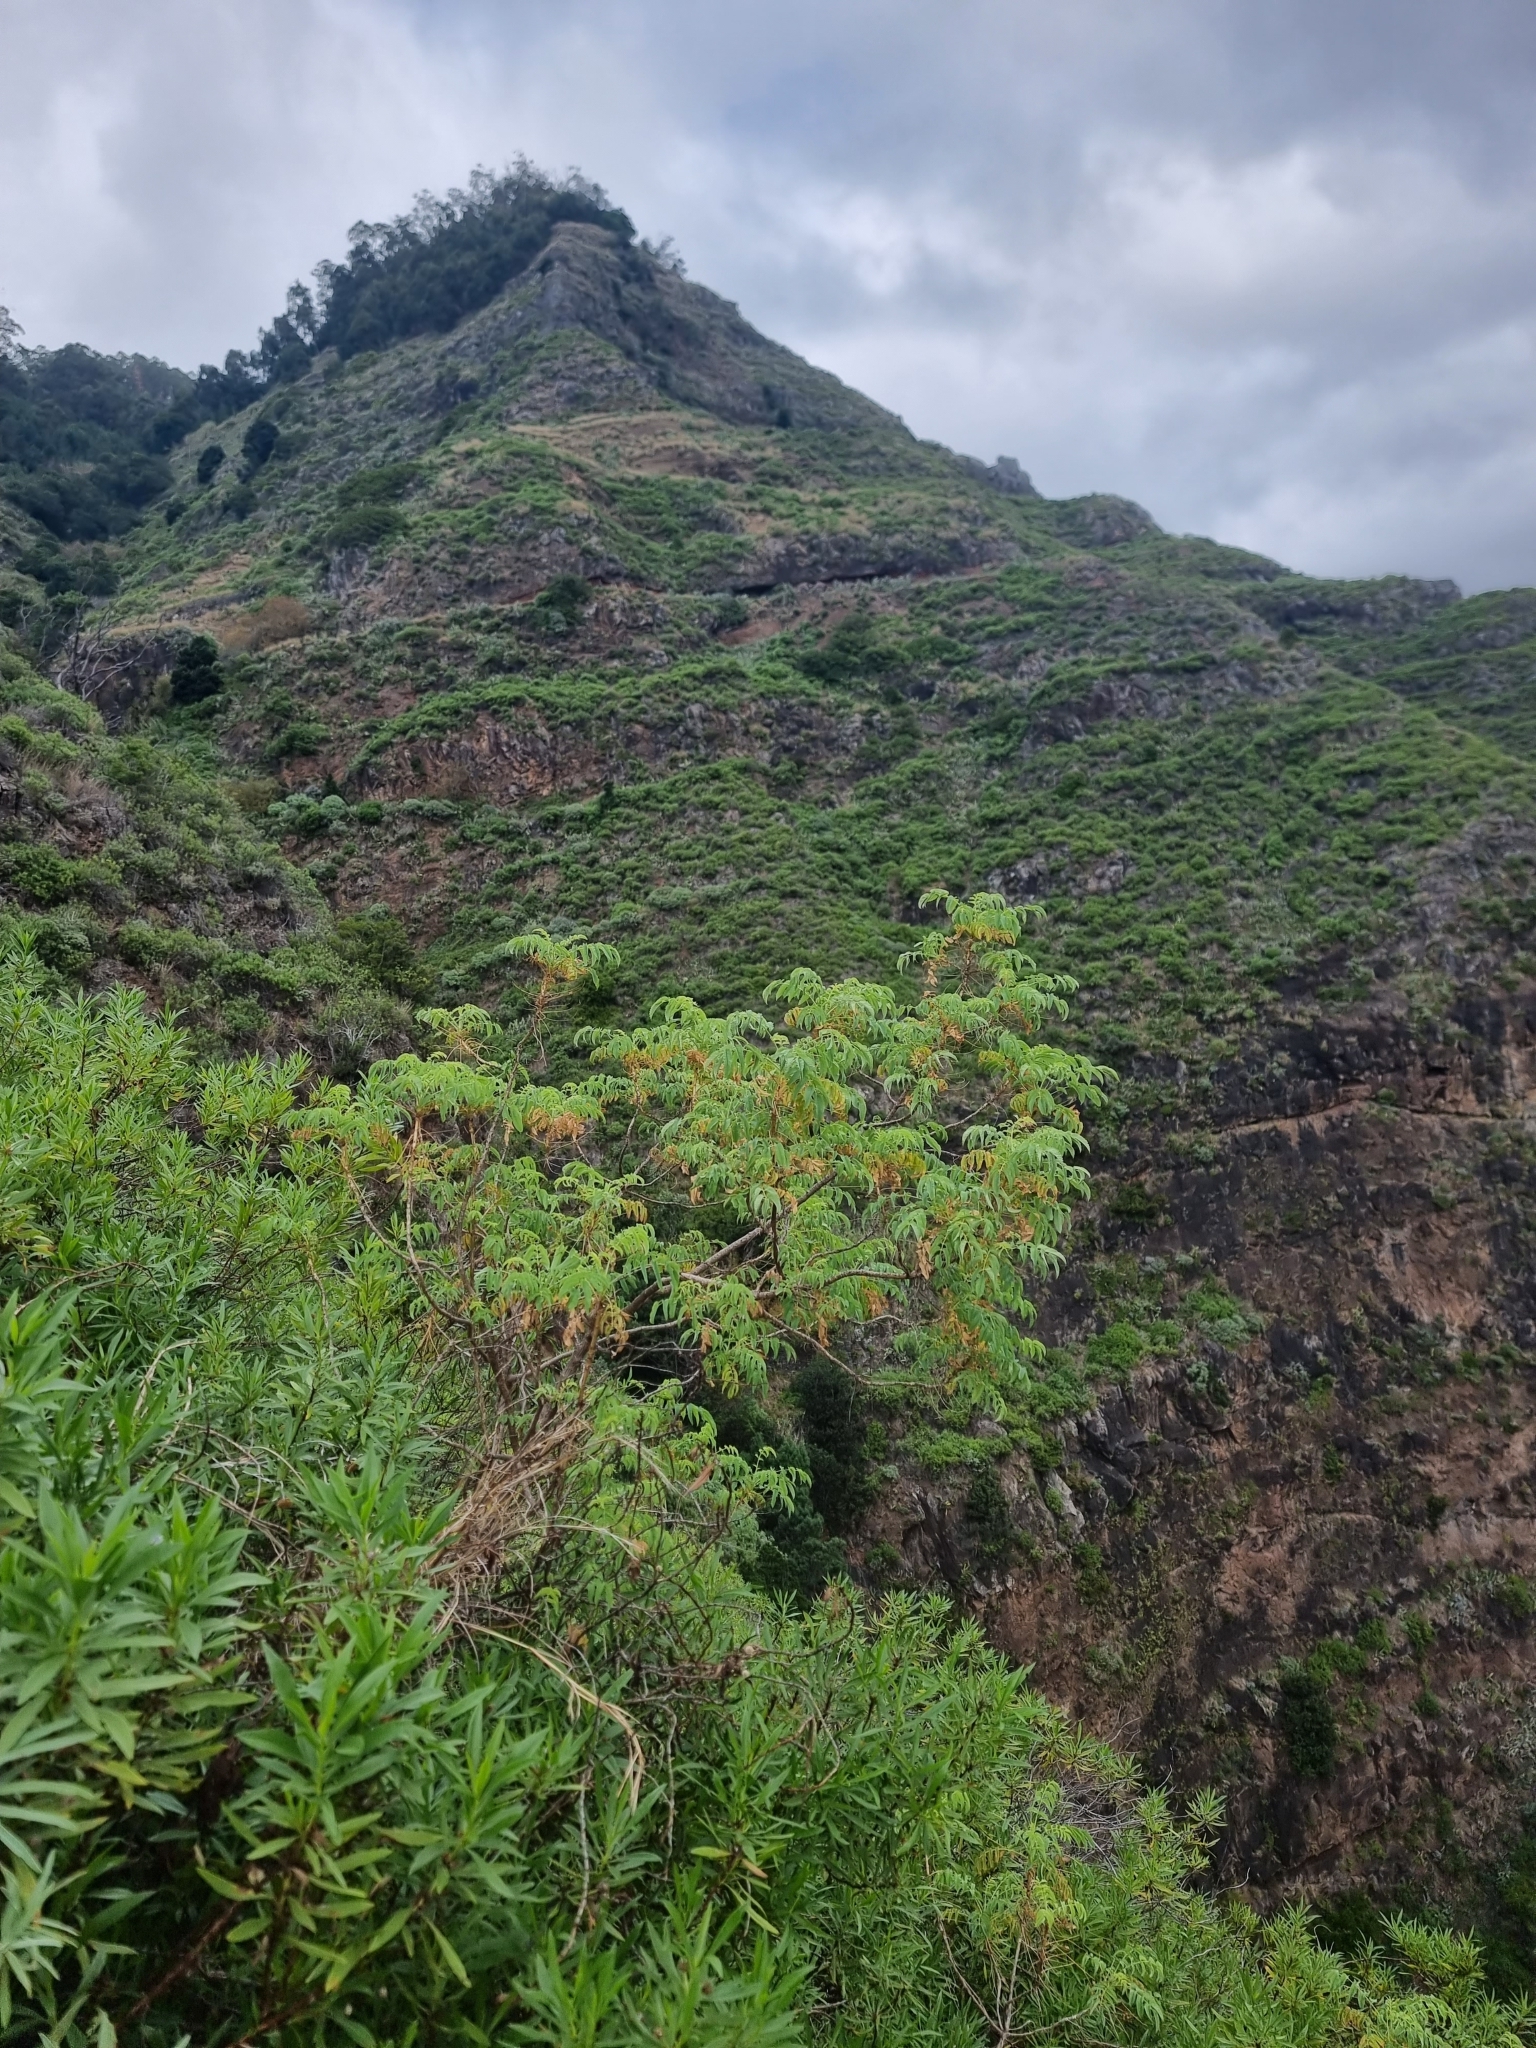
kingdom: Plantae
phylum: Tracheophyta
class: Magnoliopsida
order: Rosales
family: Rosaceae
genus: Marcetella
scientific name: Marcetella maderensis
